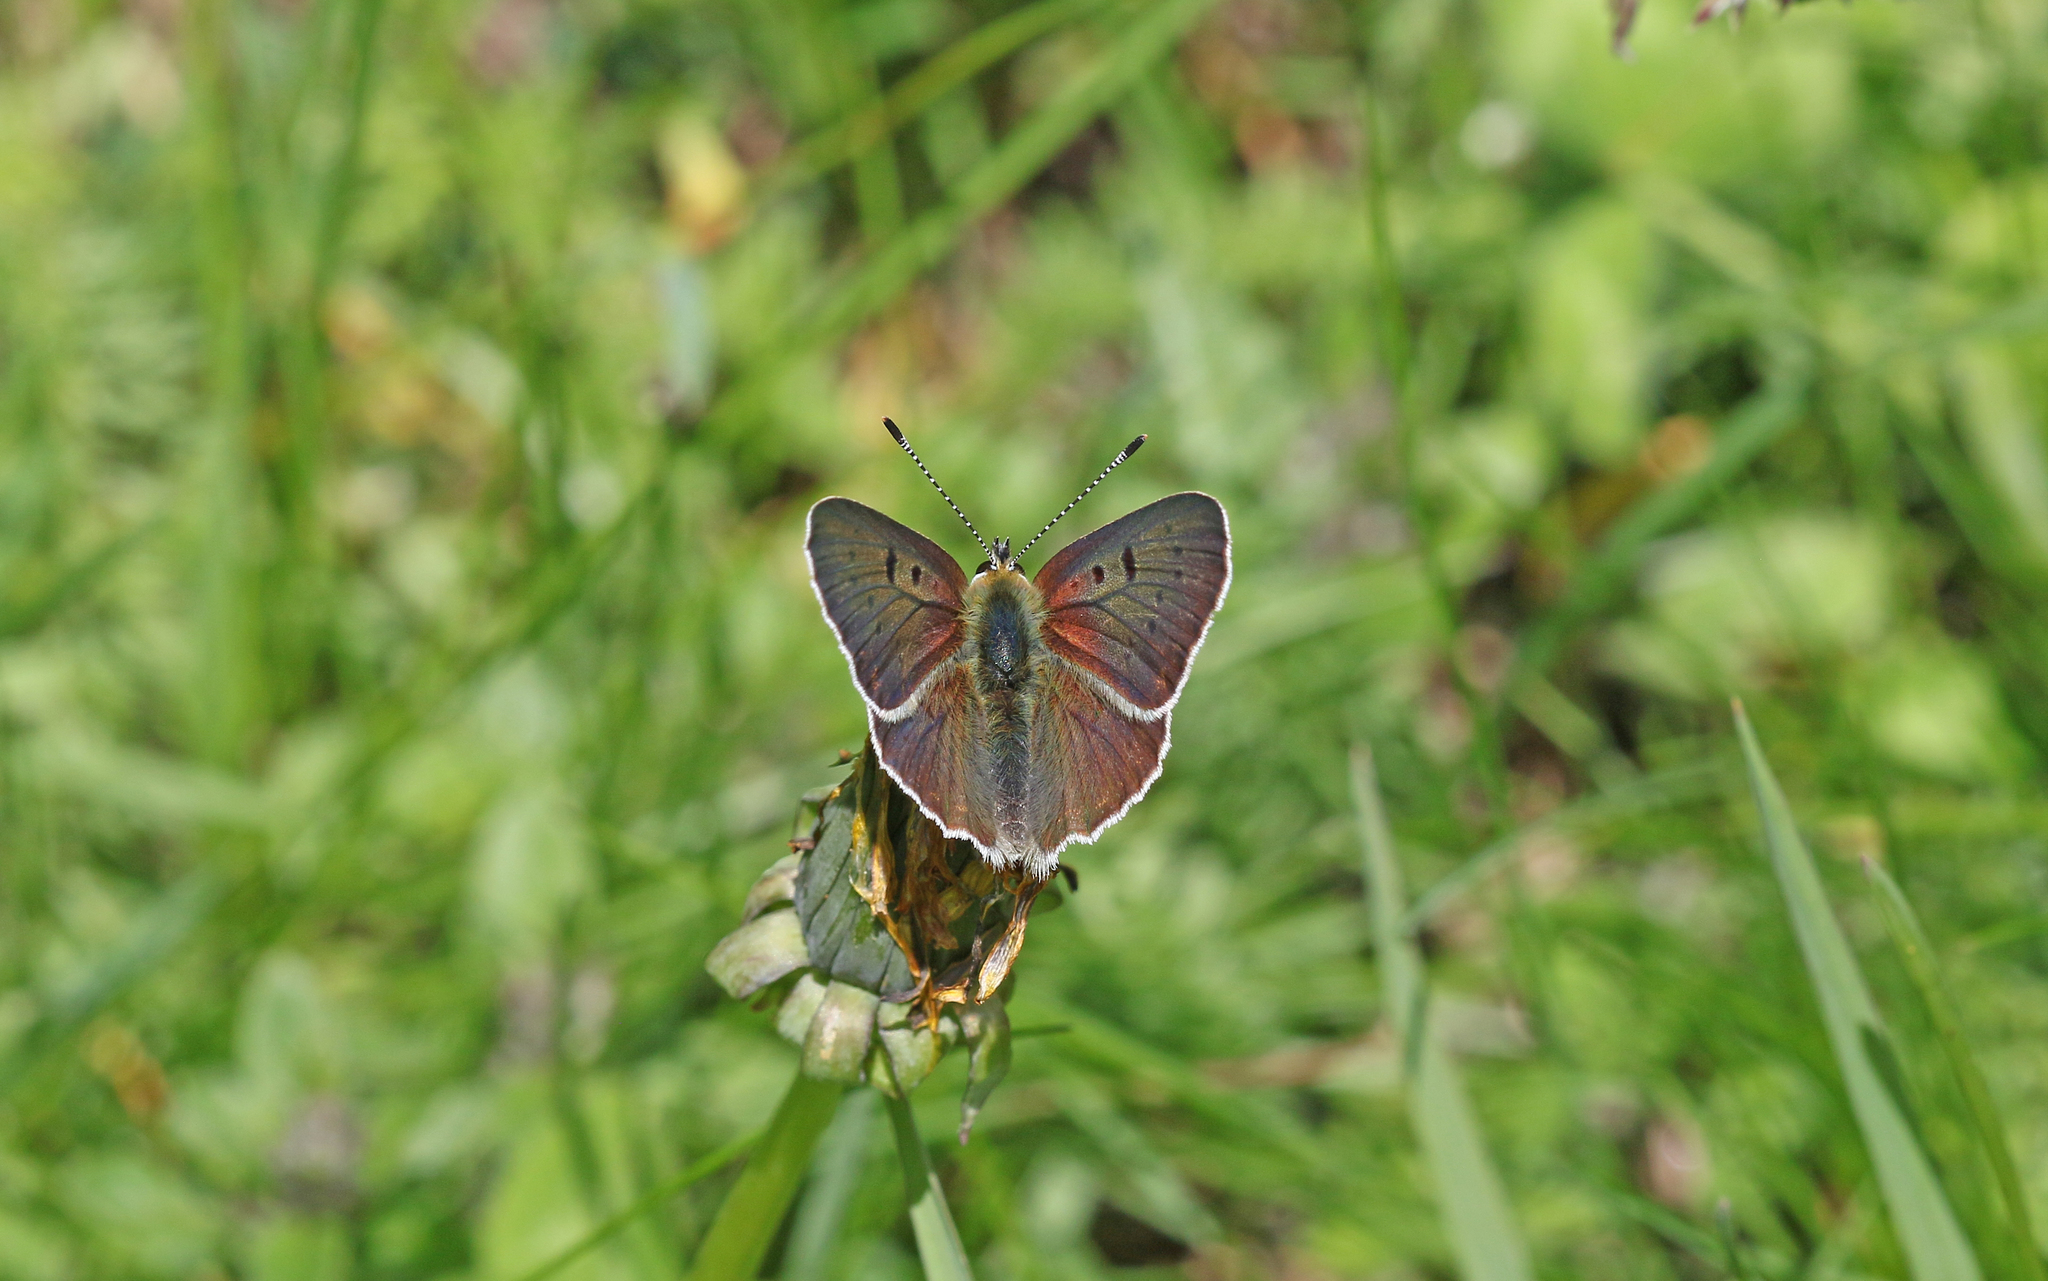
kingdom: Animalia
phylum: Arthropoda
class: Insecta
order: Lepidoptera
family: Lycaenidae
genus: Loweia
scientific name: Loweia tityrus
